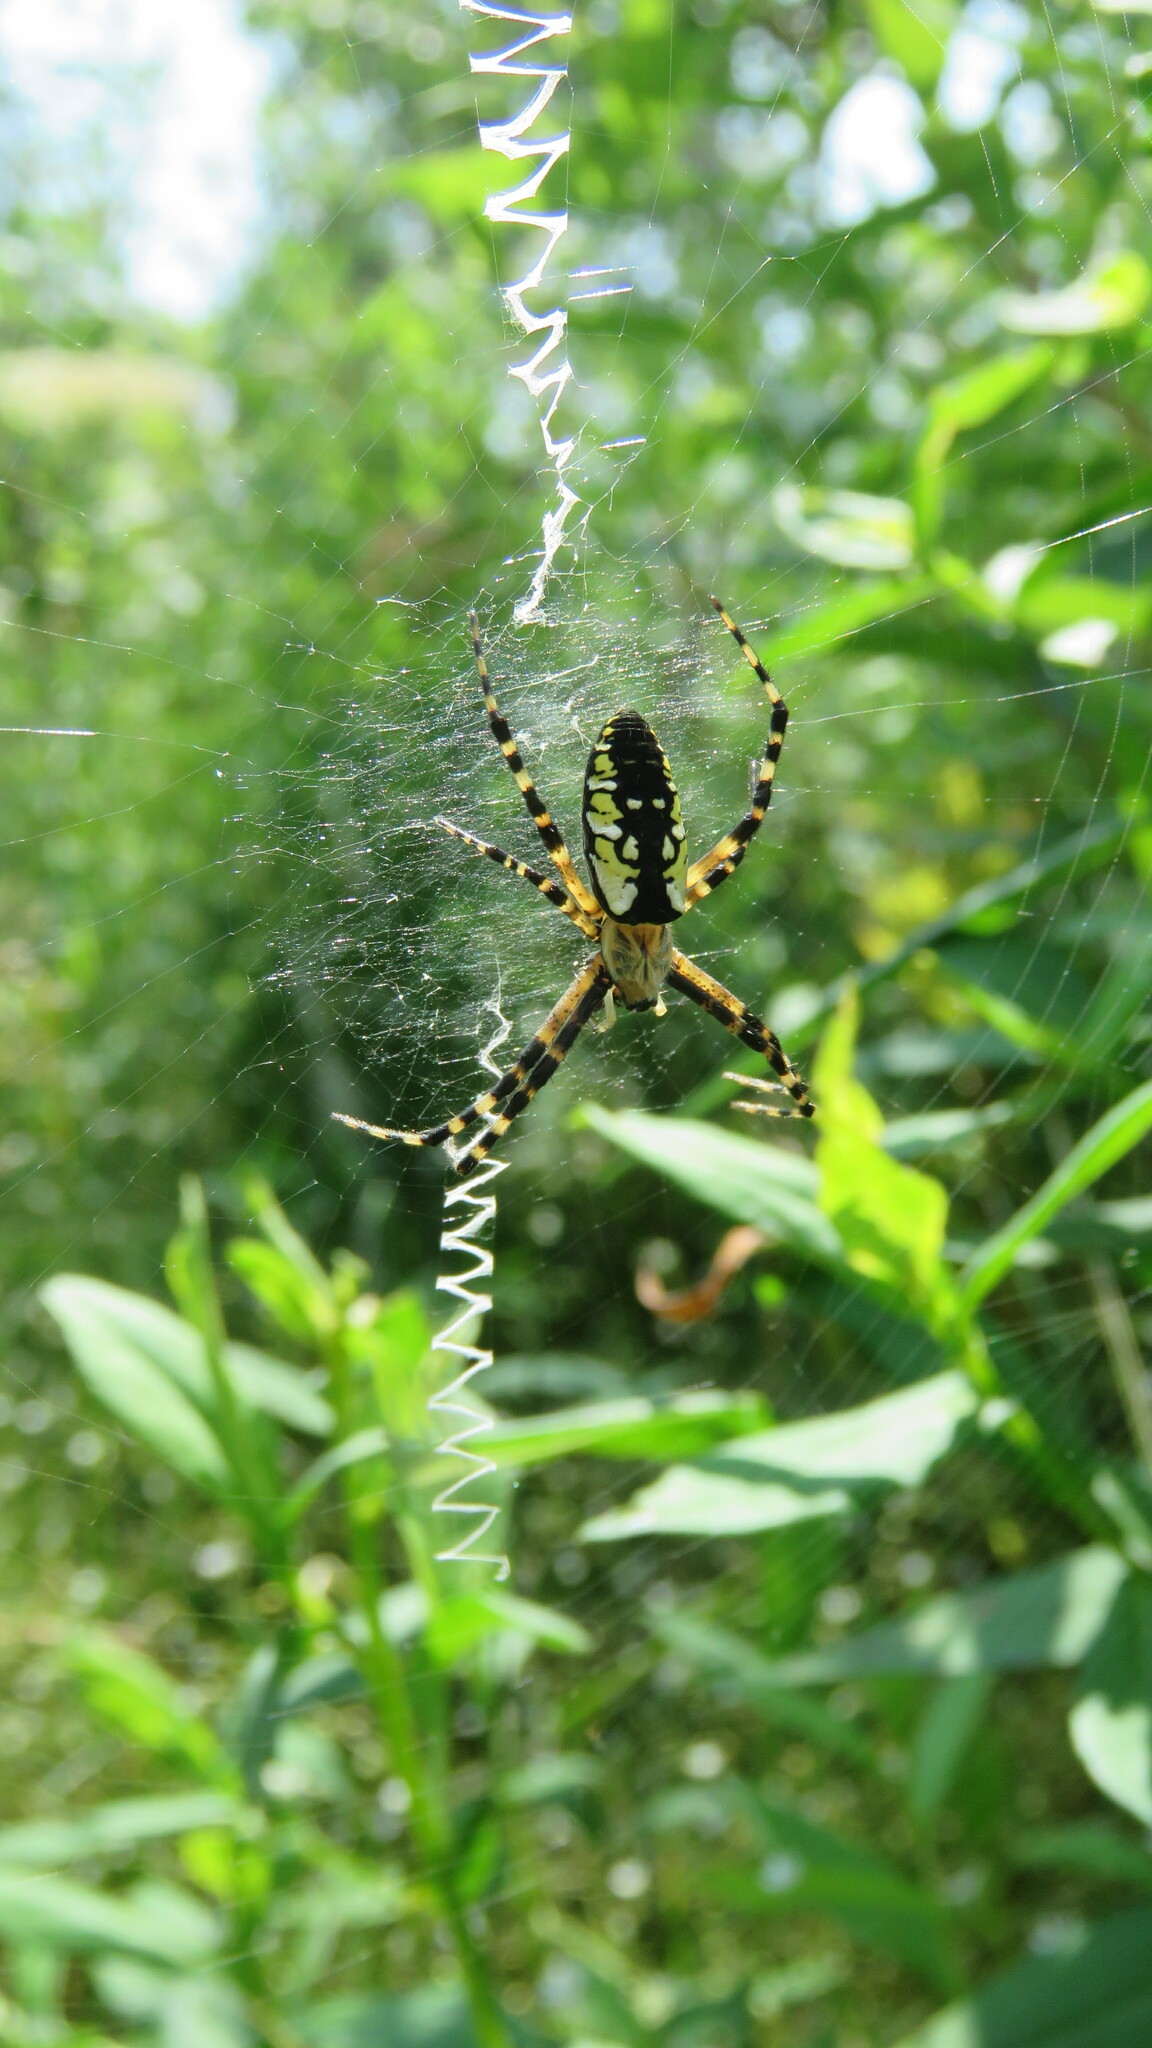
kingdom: Animalia
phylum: Arthropoda
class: Arachnida
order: Araneae
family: Araneidae
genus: Argiope
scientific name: Argiope aurantia
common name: Orb weavers
